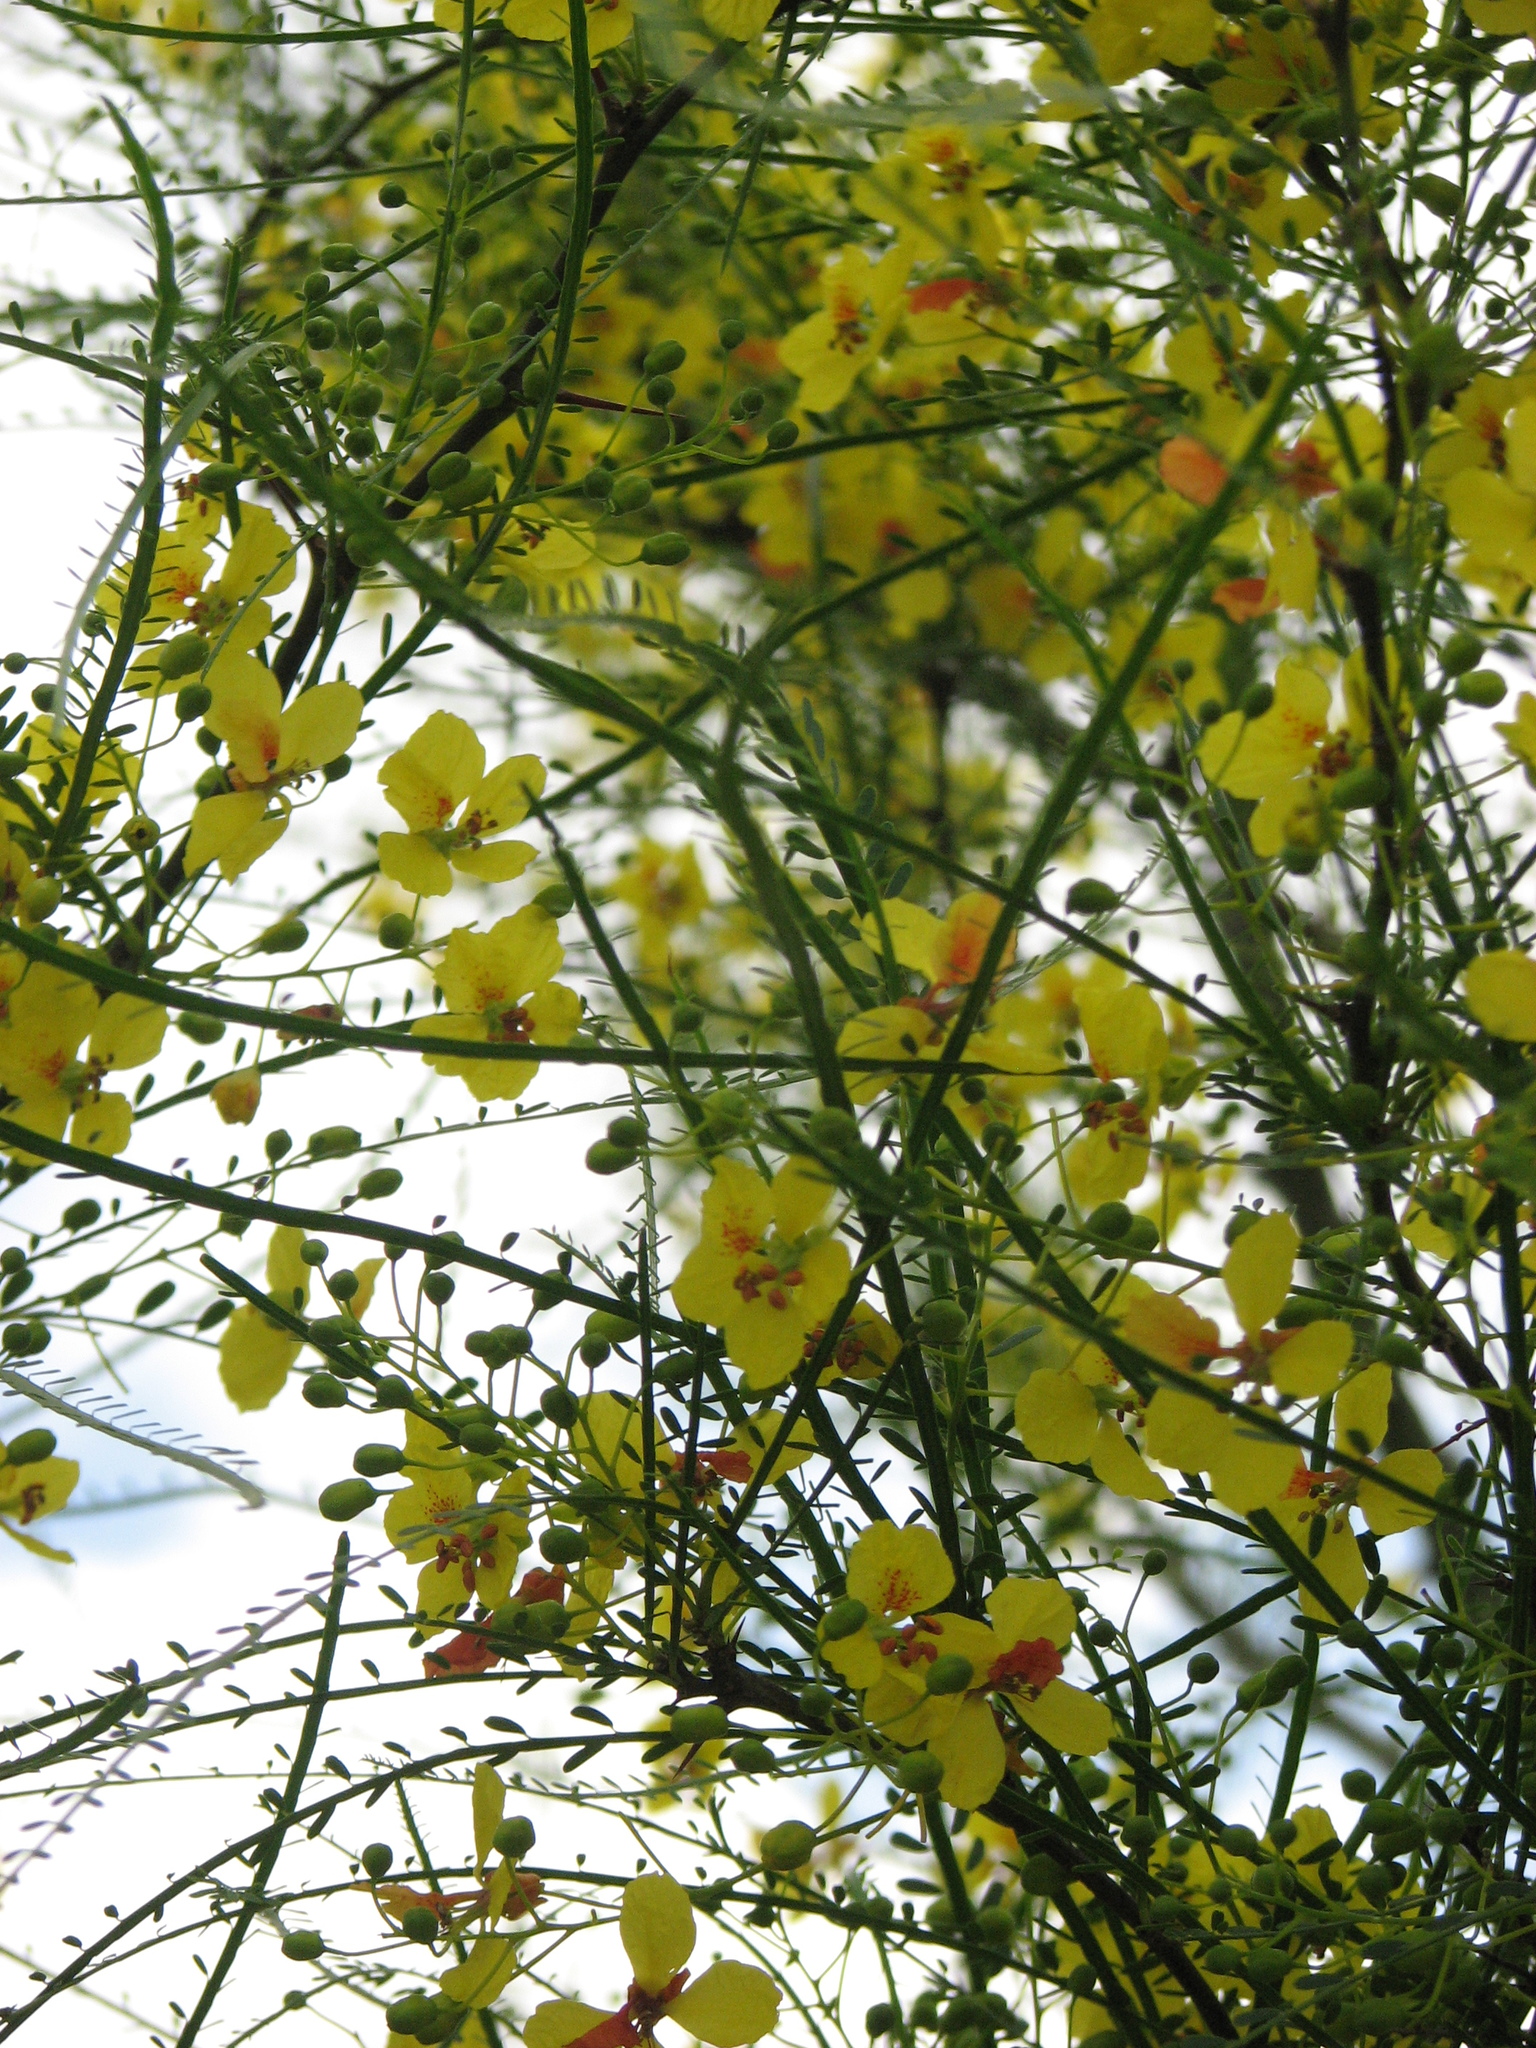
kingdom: Plantae
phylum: Tracheophyta
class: Magnoliopsida
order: Fabales
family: Fabaceae
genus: Parkinsonia
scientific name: Parkinsonia aculeata
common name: Jerusalem thorn
